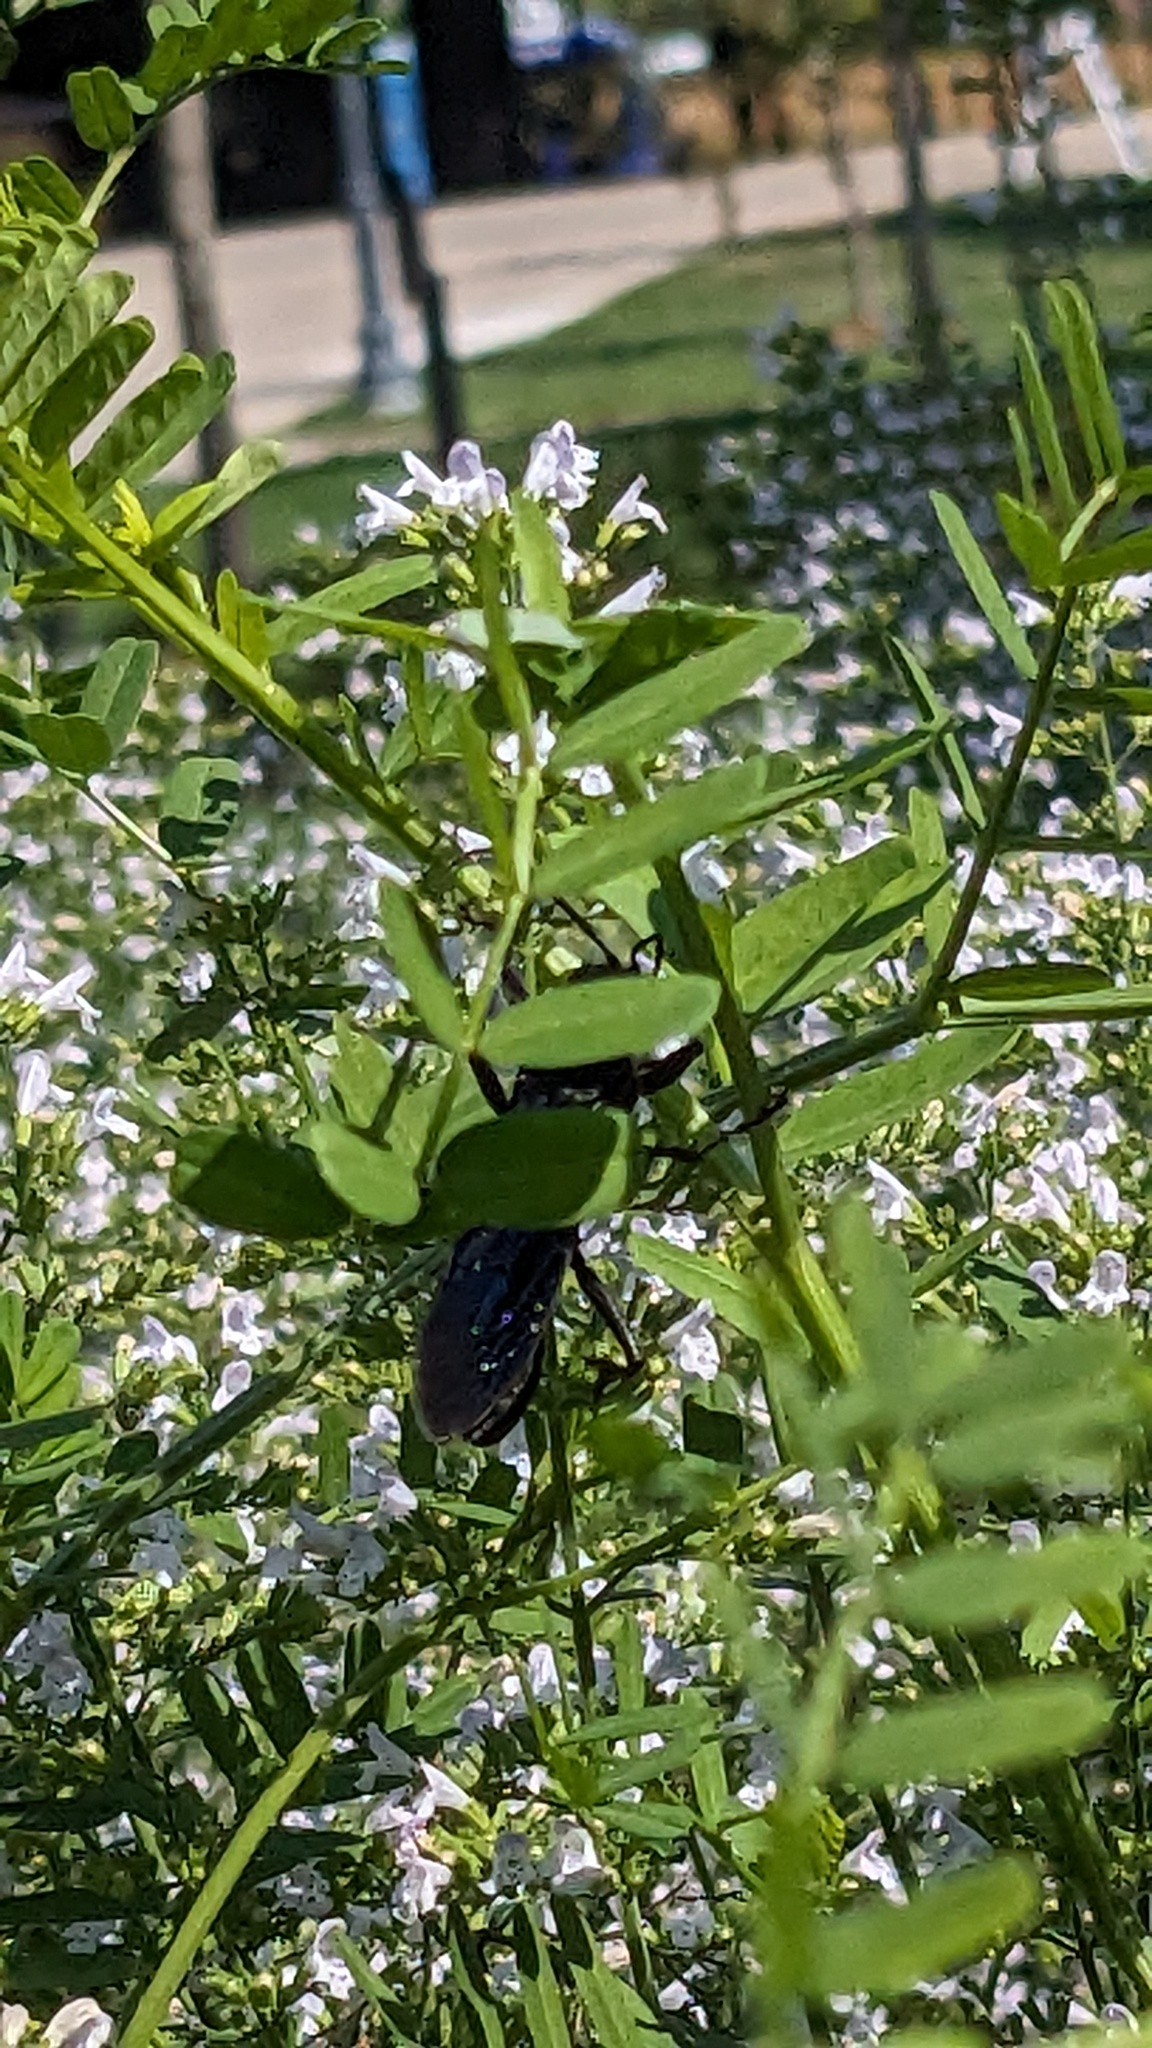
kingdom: Animalia
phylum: Arthropoda
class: Insecta
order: Hymenoptera
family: Sphecidae
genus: Sphex
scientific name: Sphex pensylvanicus
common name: Great black digger wasp
